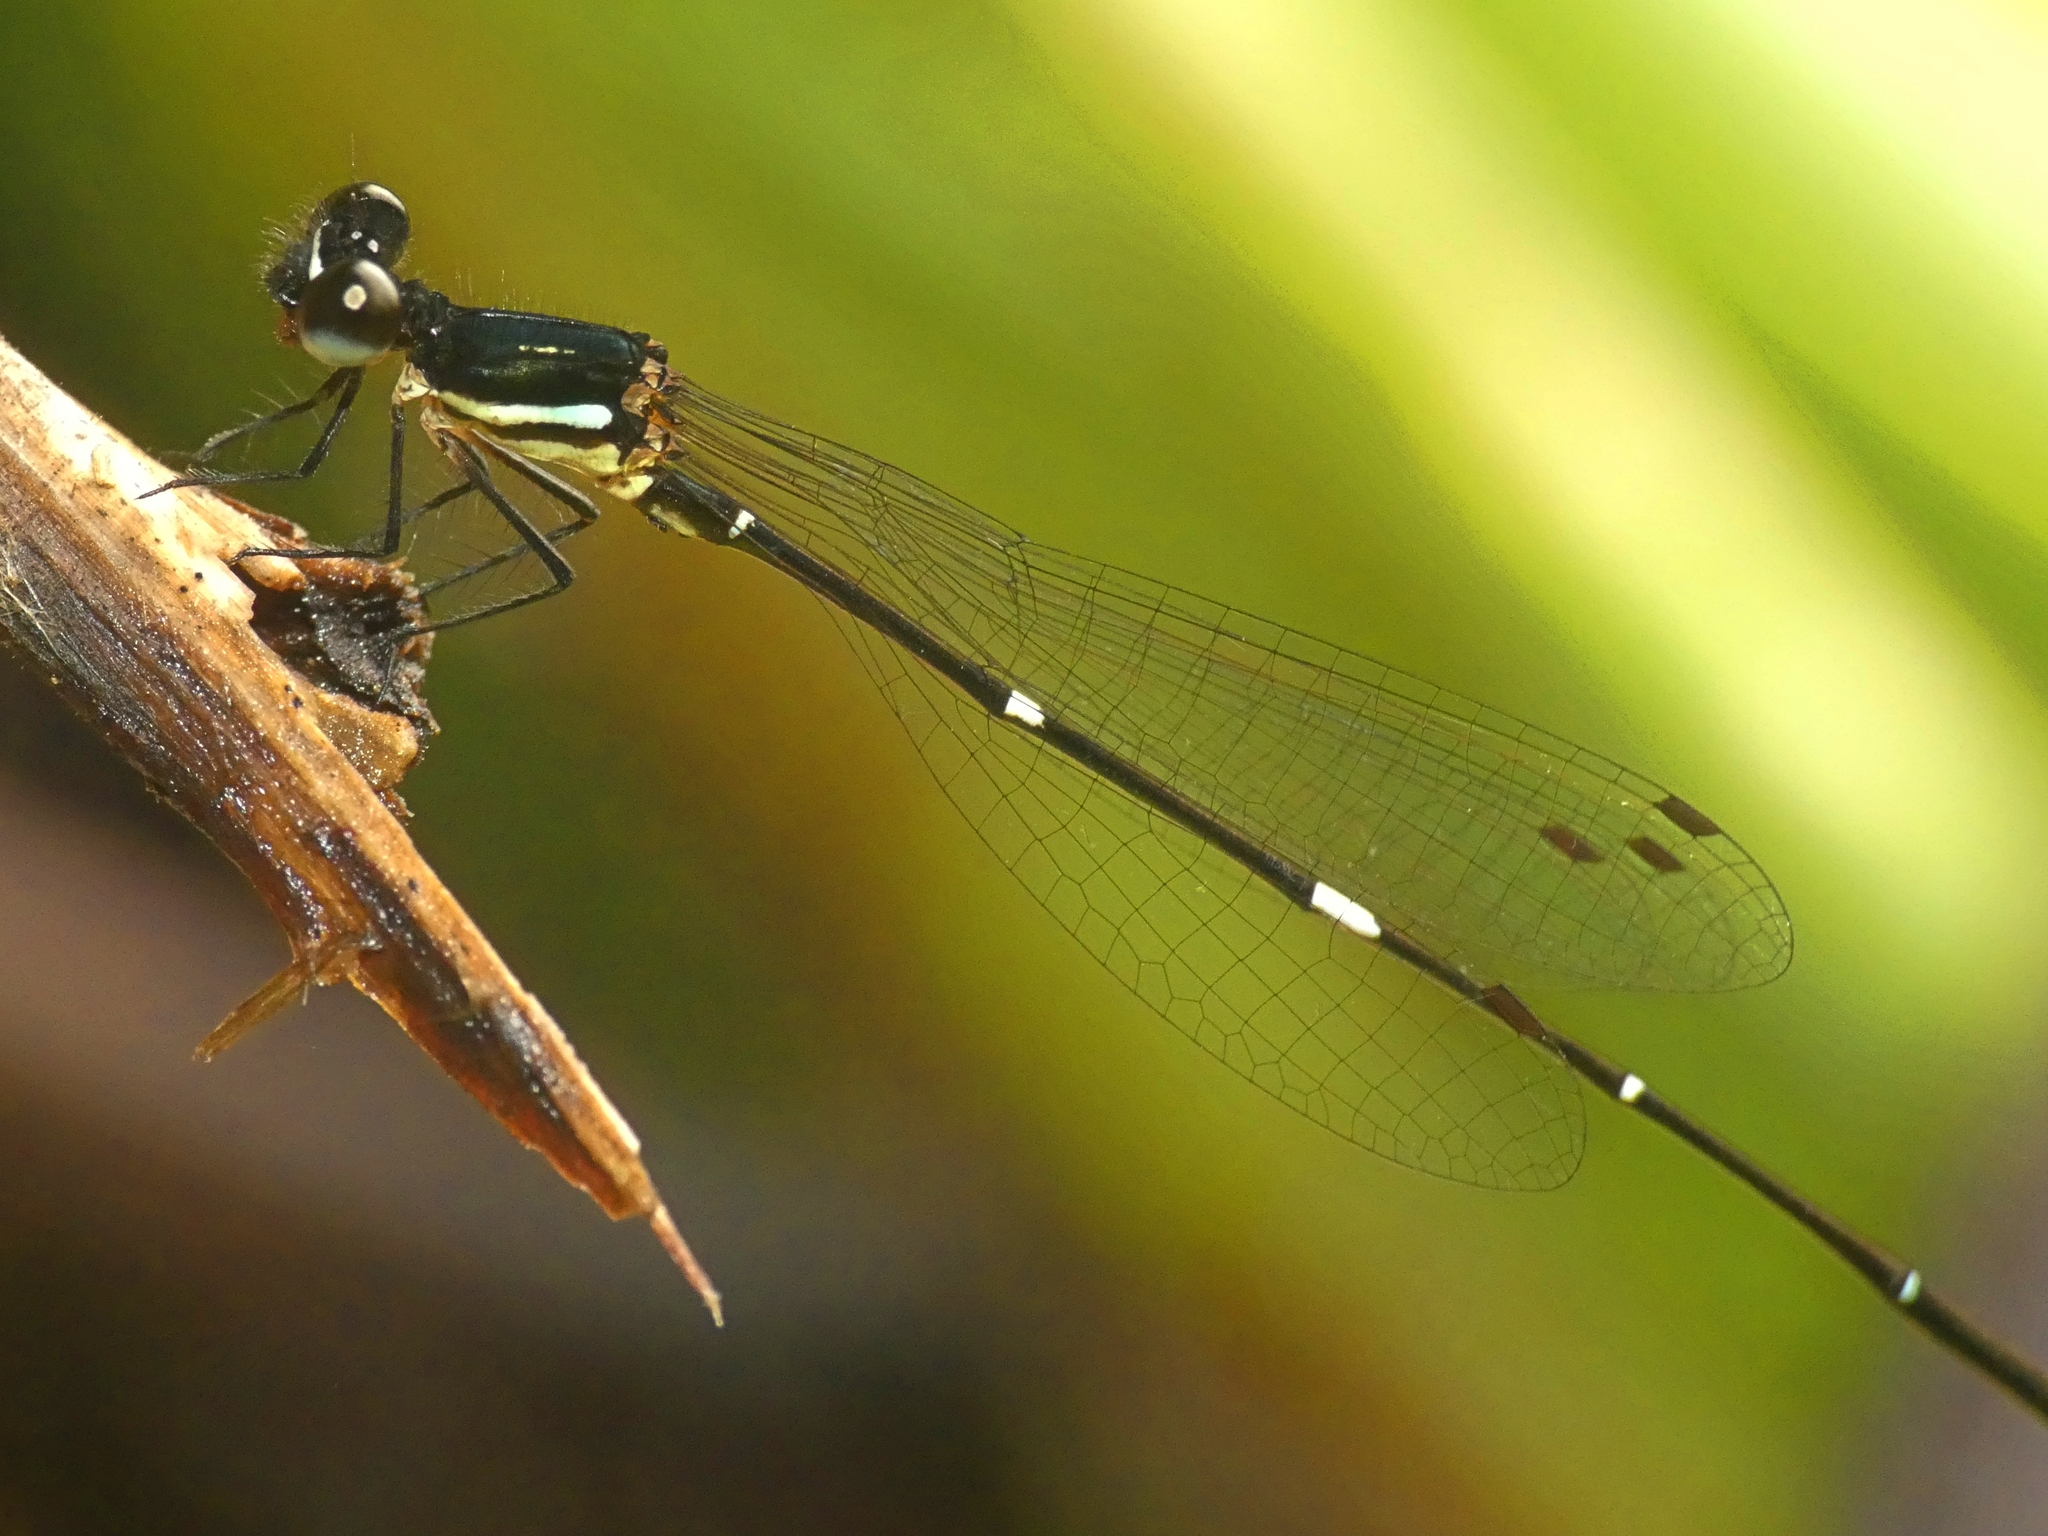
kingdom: Animalia
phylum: Arthropoda
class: Insecta
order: Odonata
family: Platycnemididae
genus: Nososticta
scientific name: Nososticta solitaria
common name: Fivespot threadtail
